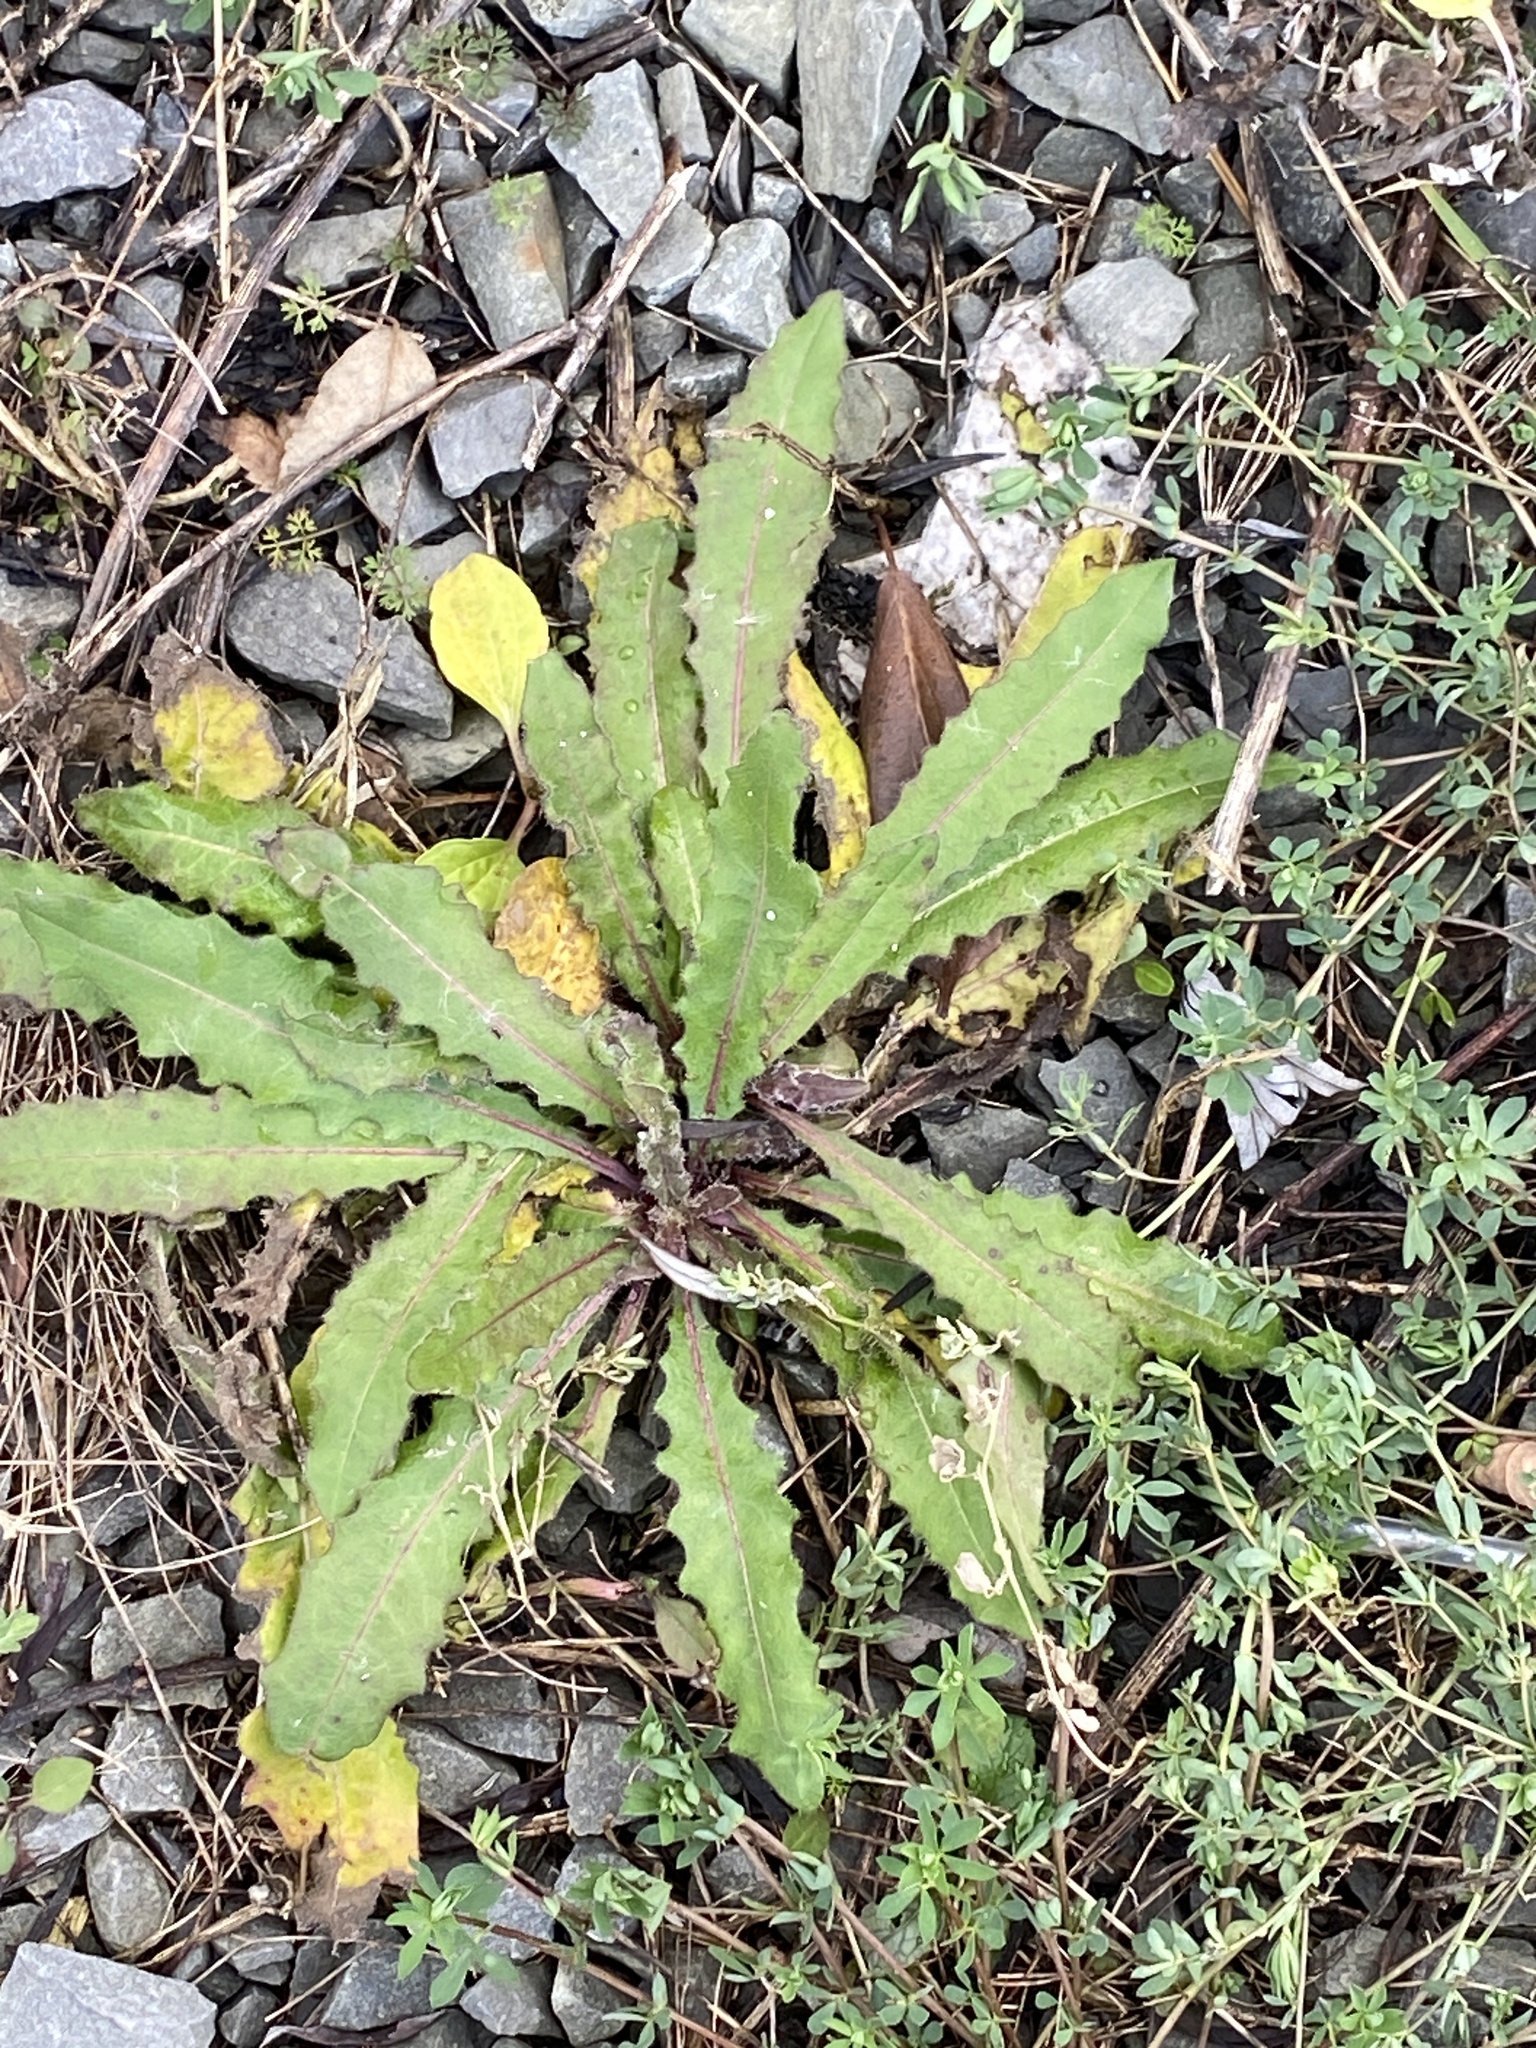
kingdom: Plantae
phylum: Tracheophyta
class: Magnoliopsida
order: Asterales
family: Asteraceae
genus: Picris
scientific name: Picris hieracioides
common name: Hawkweed oxtongue
